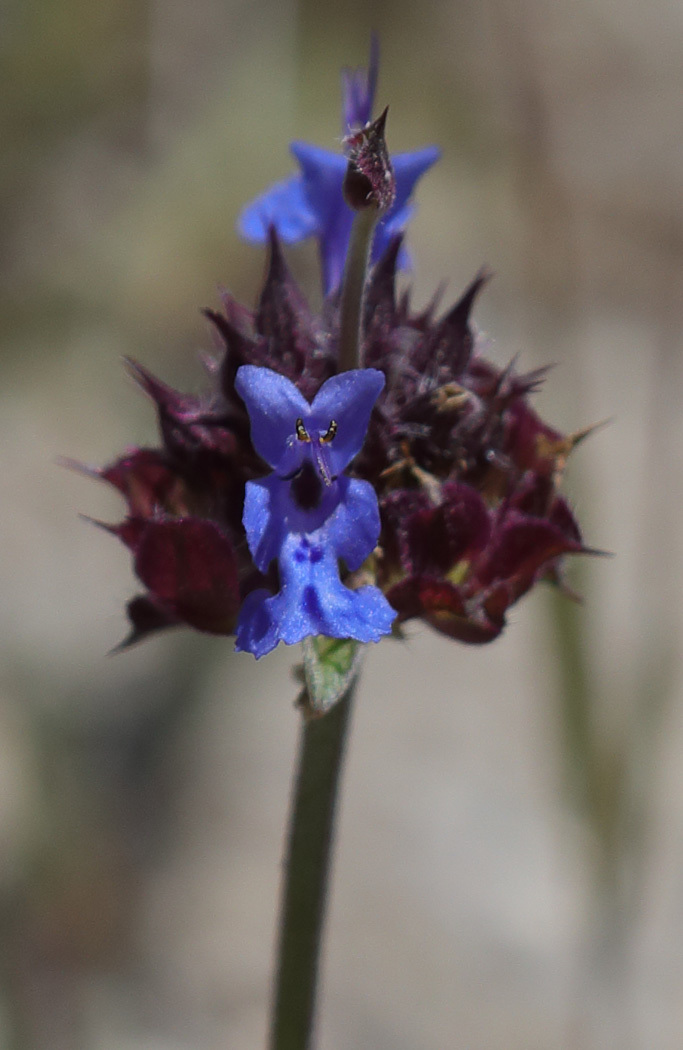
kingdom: Plantae
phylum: Tracheophyta
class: Magnoliopsida
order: Lamiales
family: Lamiaceae
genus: Salvia
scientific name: Salvia columbariae
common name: Chia
